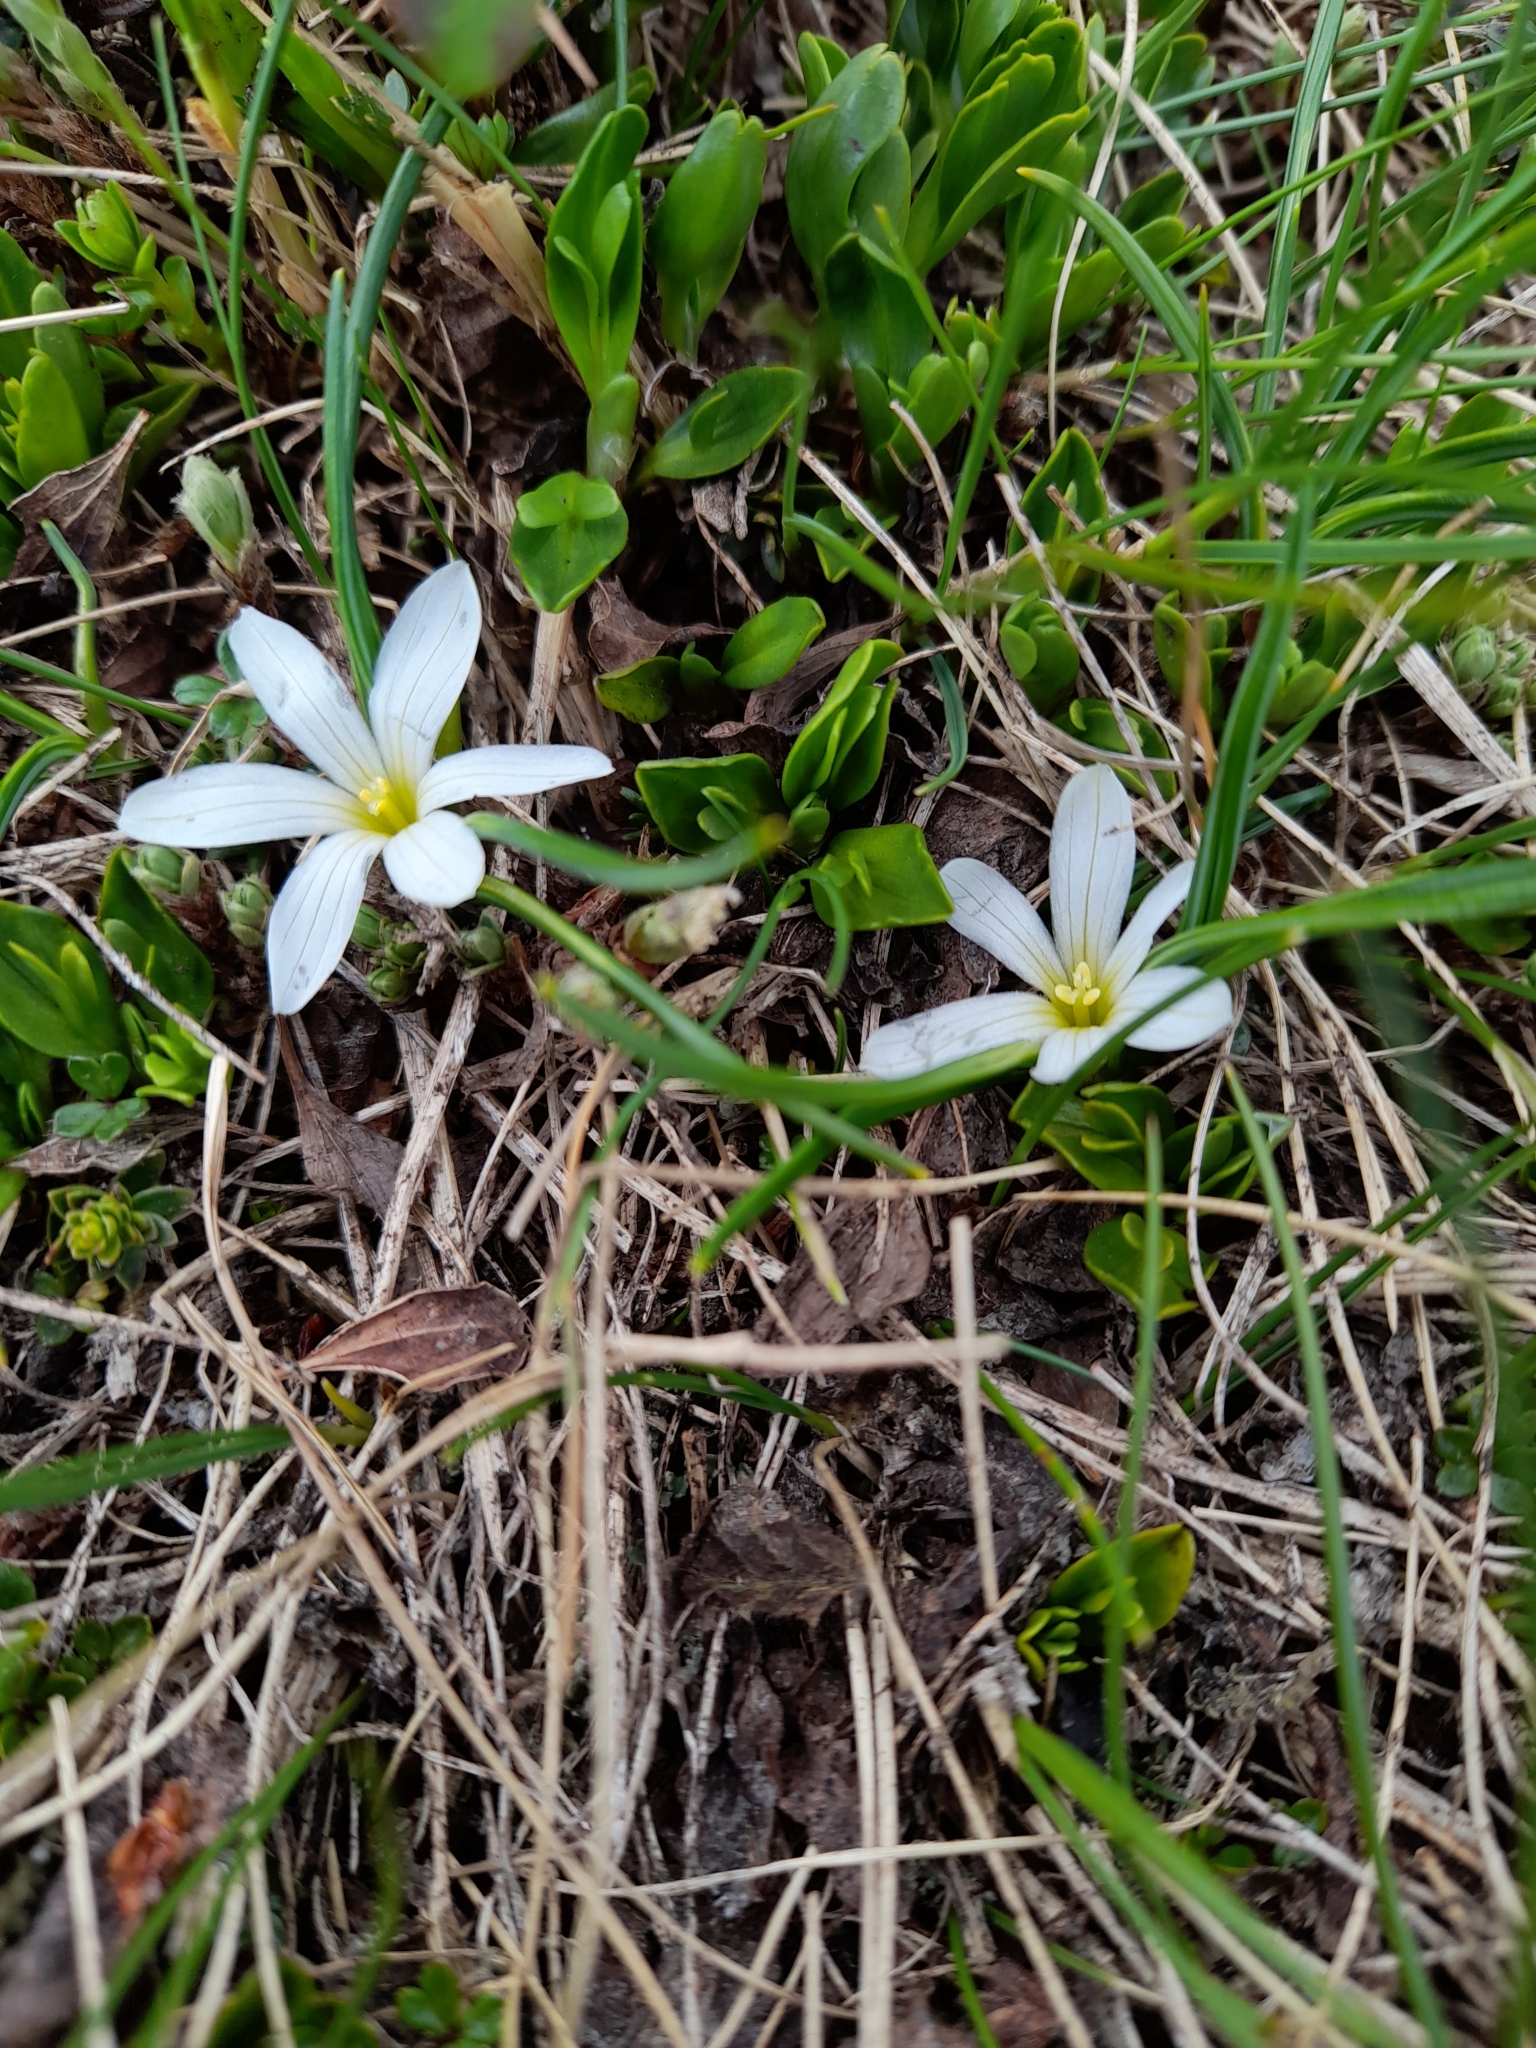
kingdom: Plantae
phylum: Tracheophyta
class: Liliopsida
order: Asparagales
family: Iridaceae
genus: Olsynium
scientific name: Olsynium obscurum
